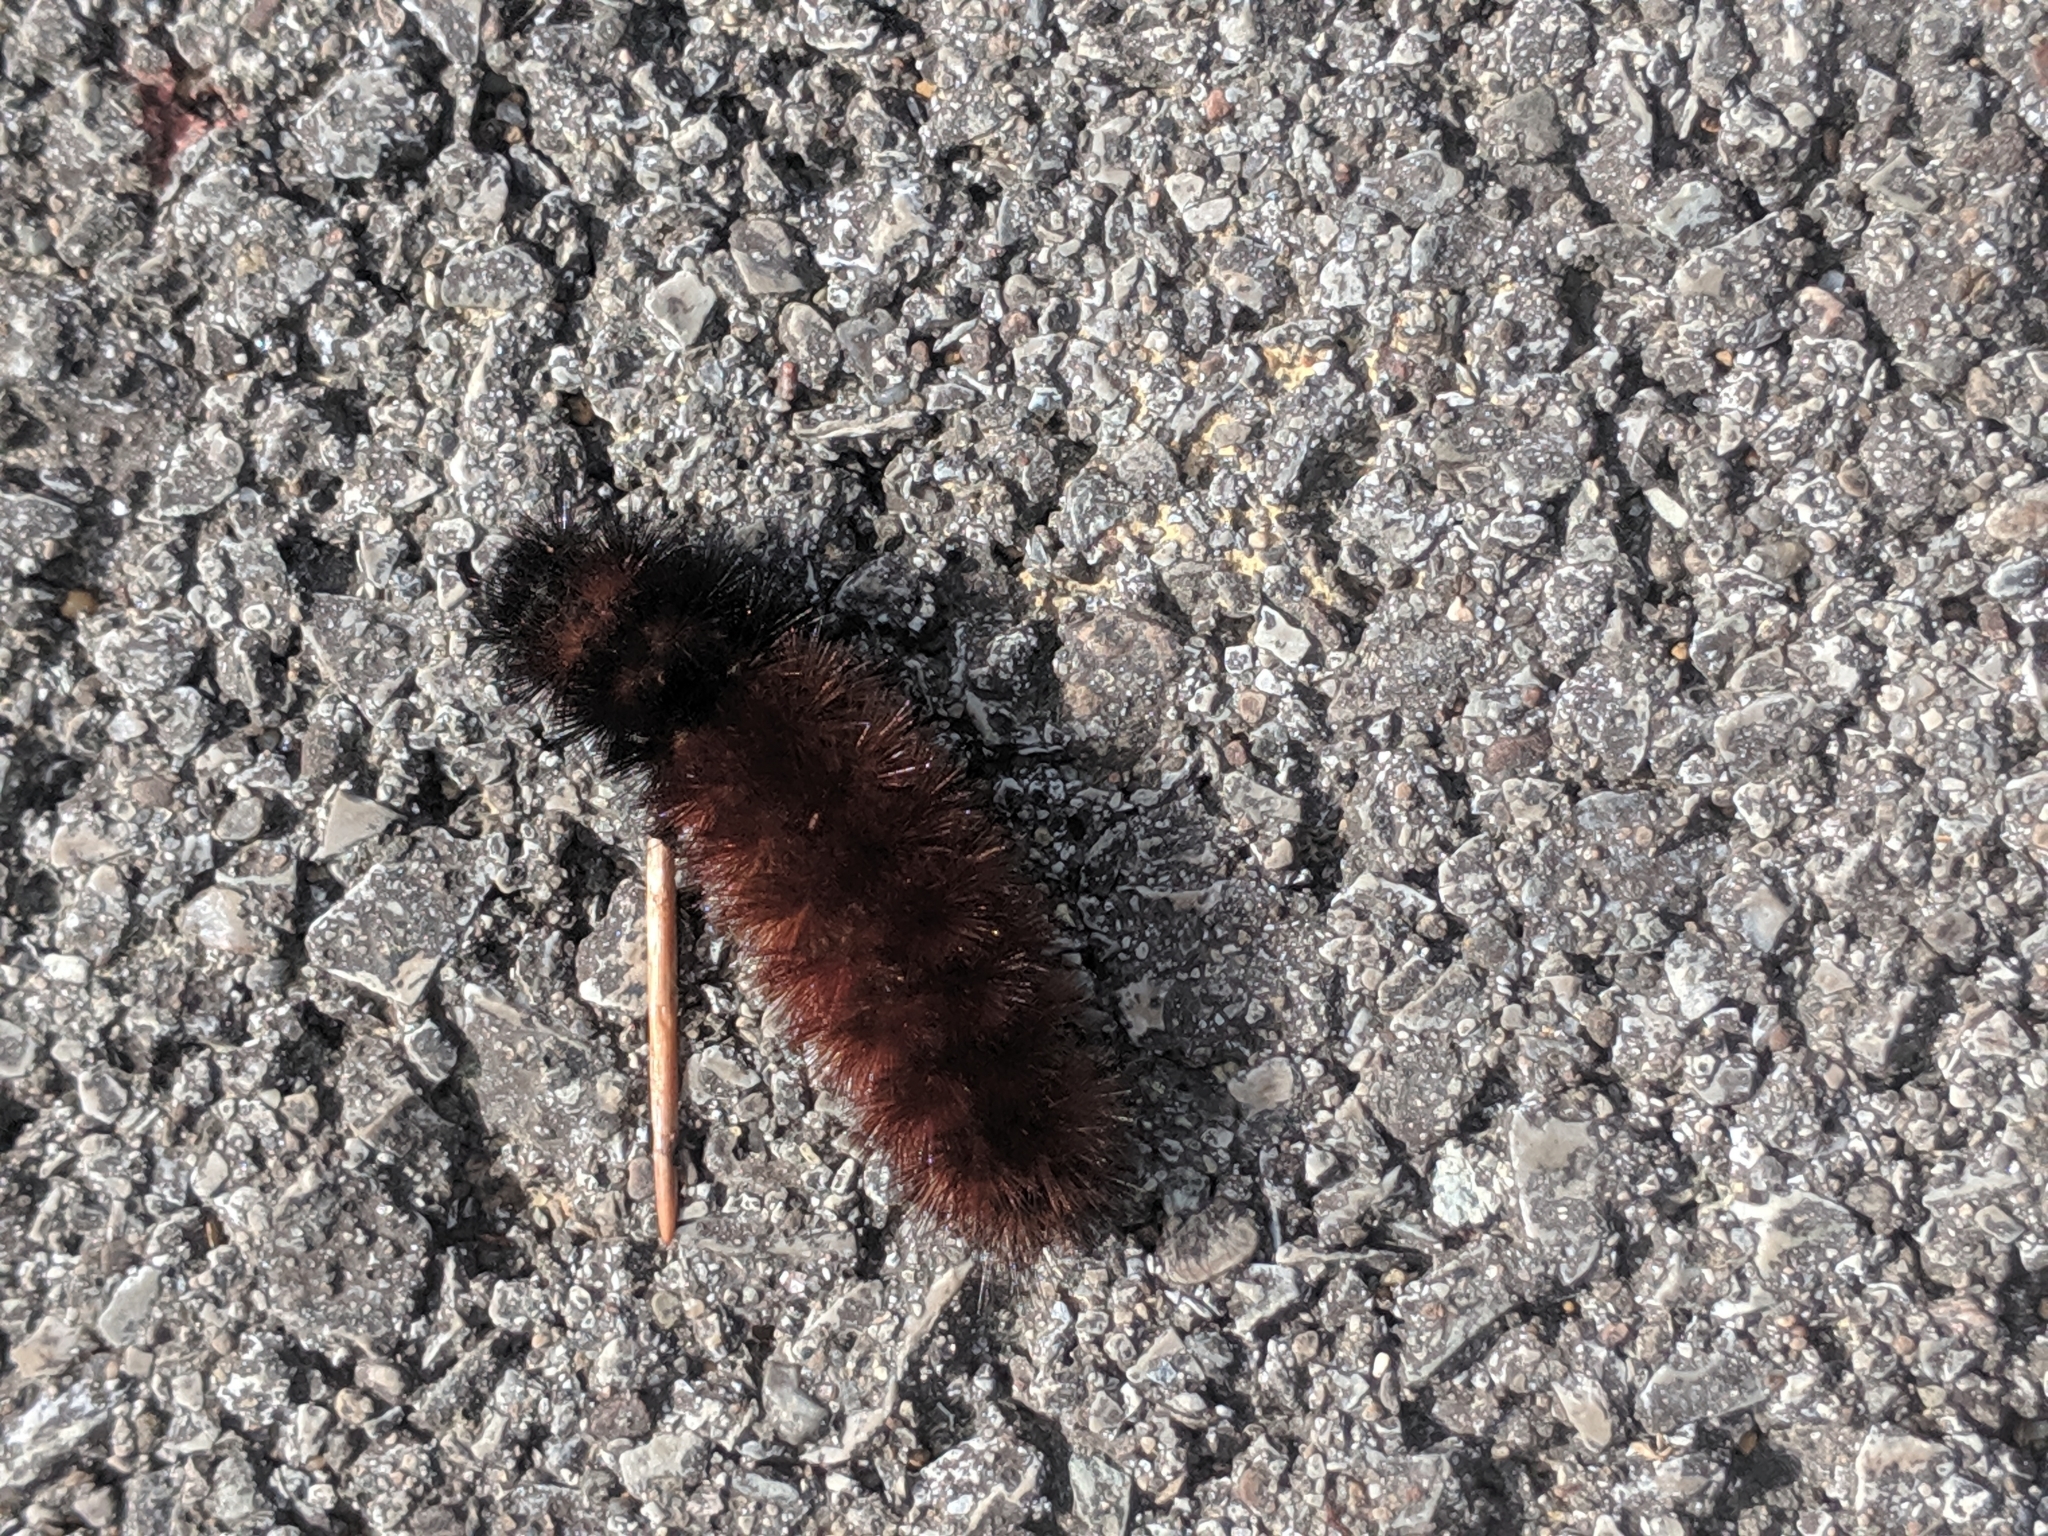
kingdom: Animalia
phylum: Arthropoda
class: Insecta
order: Lepidoptera
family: Erebidae
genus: Pyrrharctia
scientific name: Pyrrharctia isabella
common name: Isabella tiger moth
